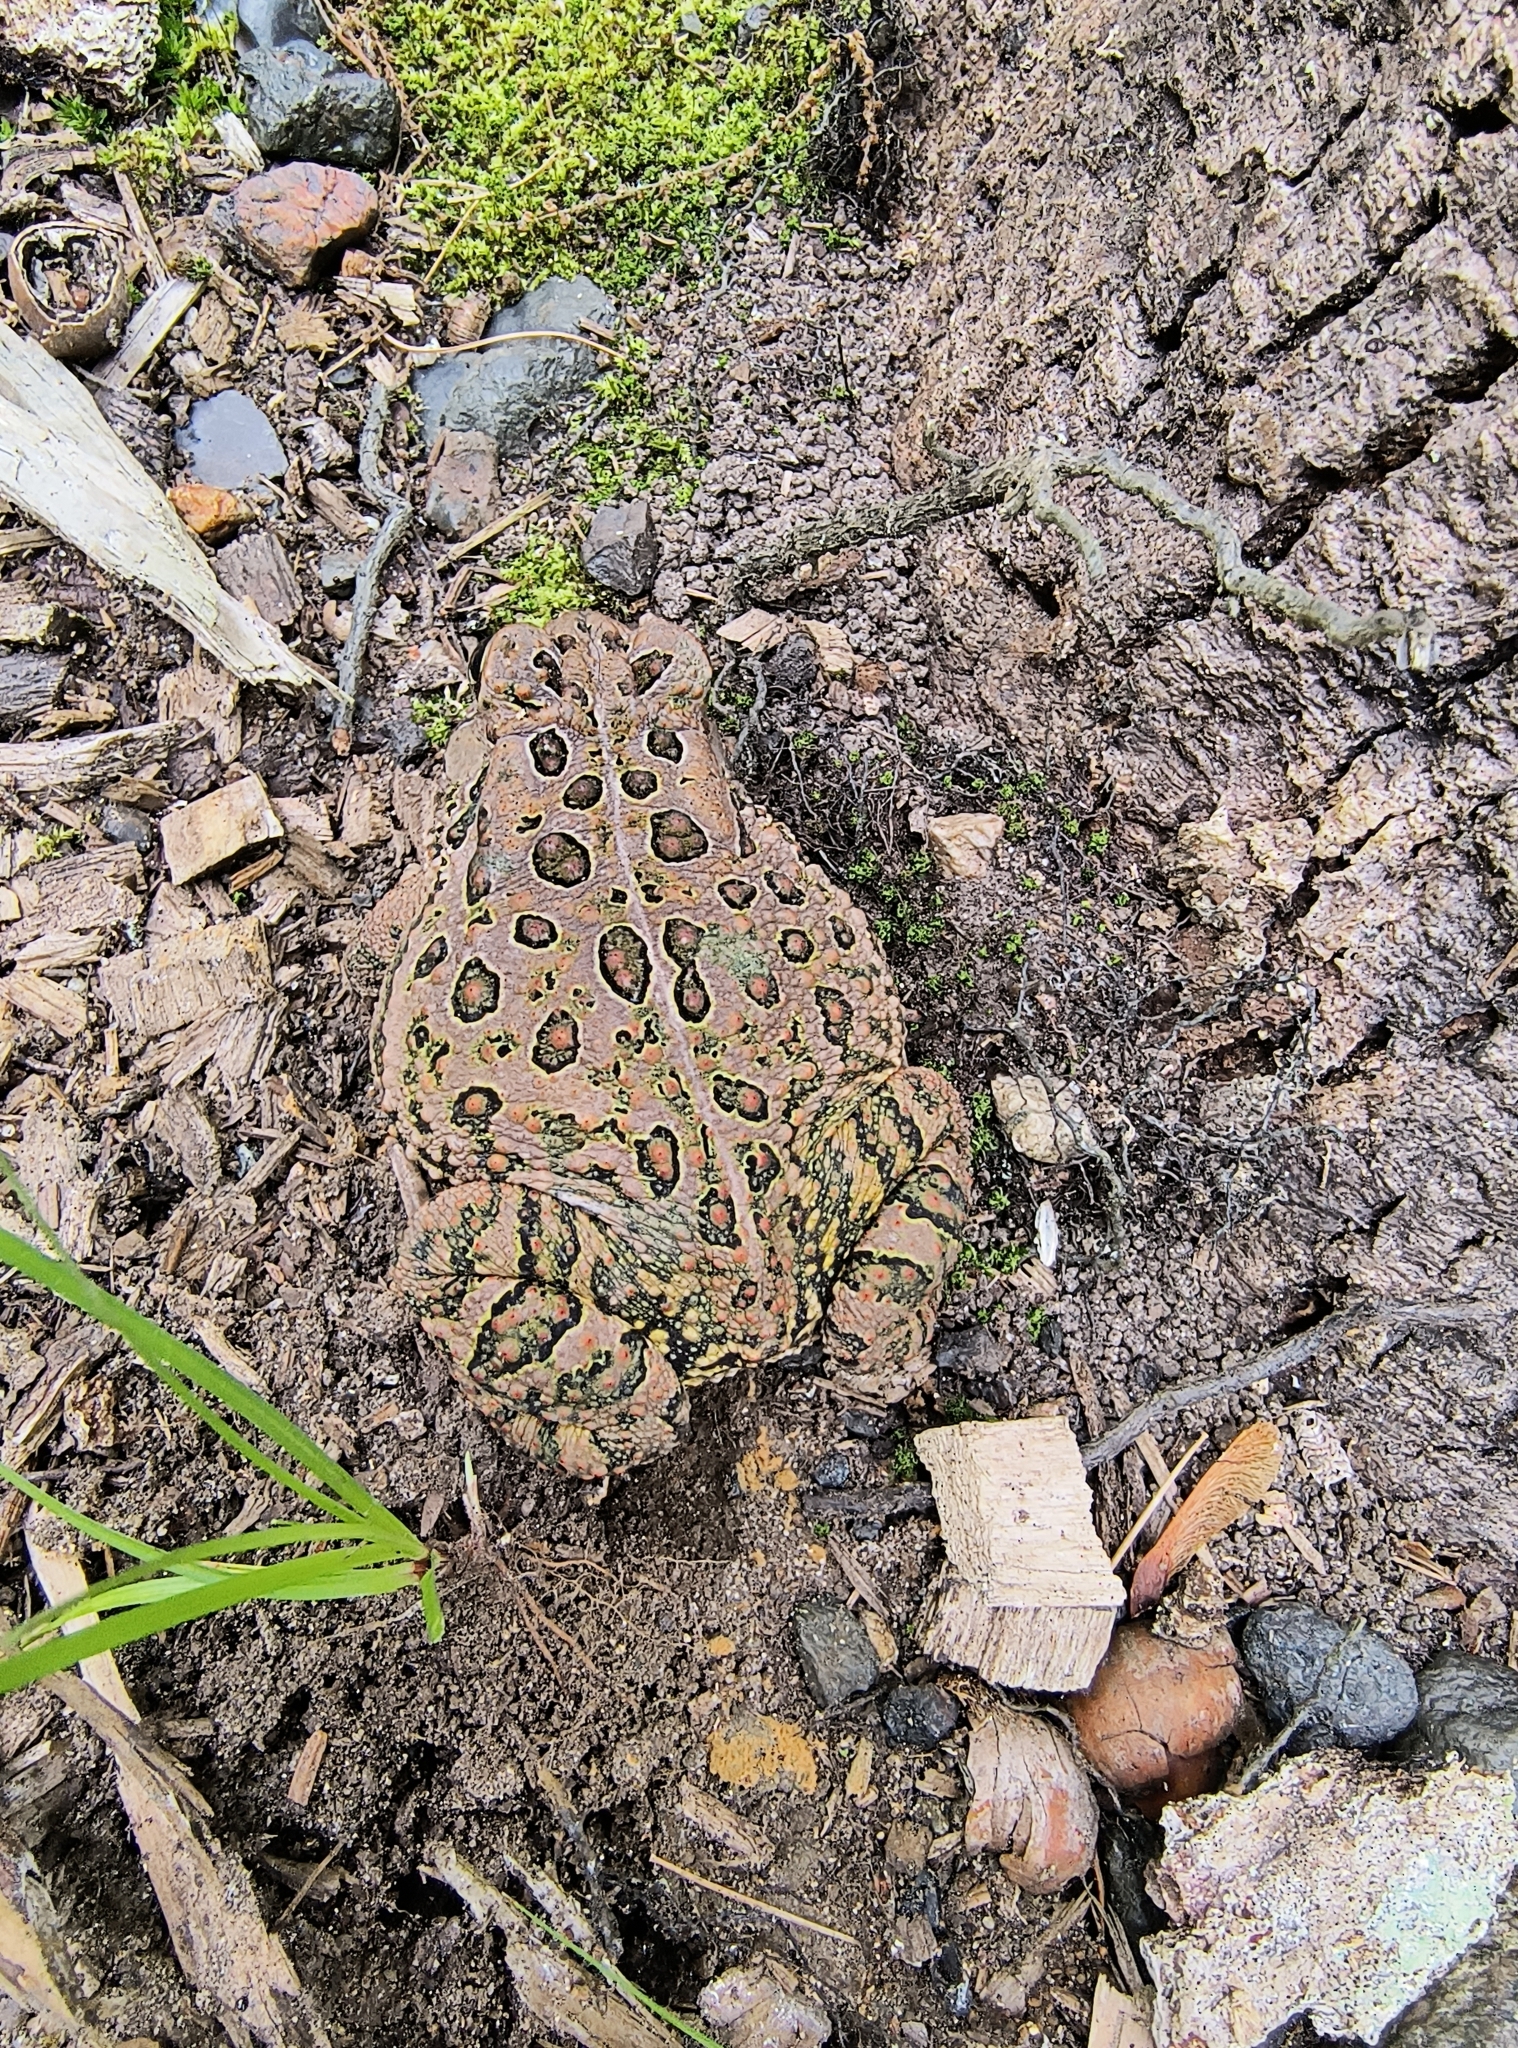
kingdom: Animalia
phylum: Chordata
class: Amphibia
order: Anura
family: Bufonidae
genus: Anaxyrus
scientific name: Anaxyrus americanus
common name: American toad
